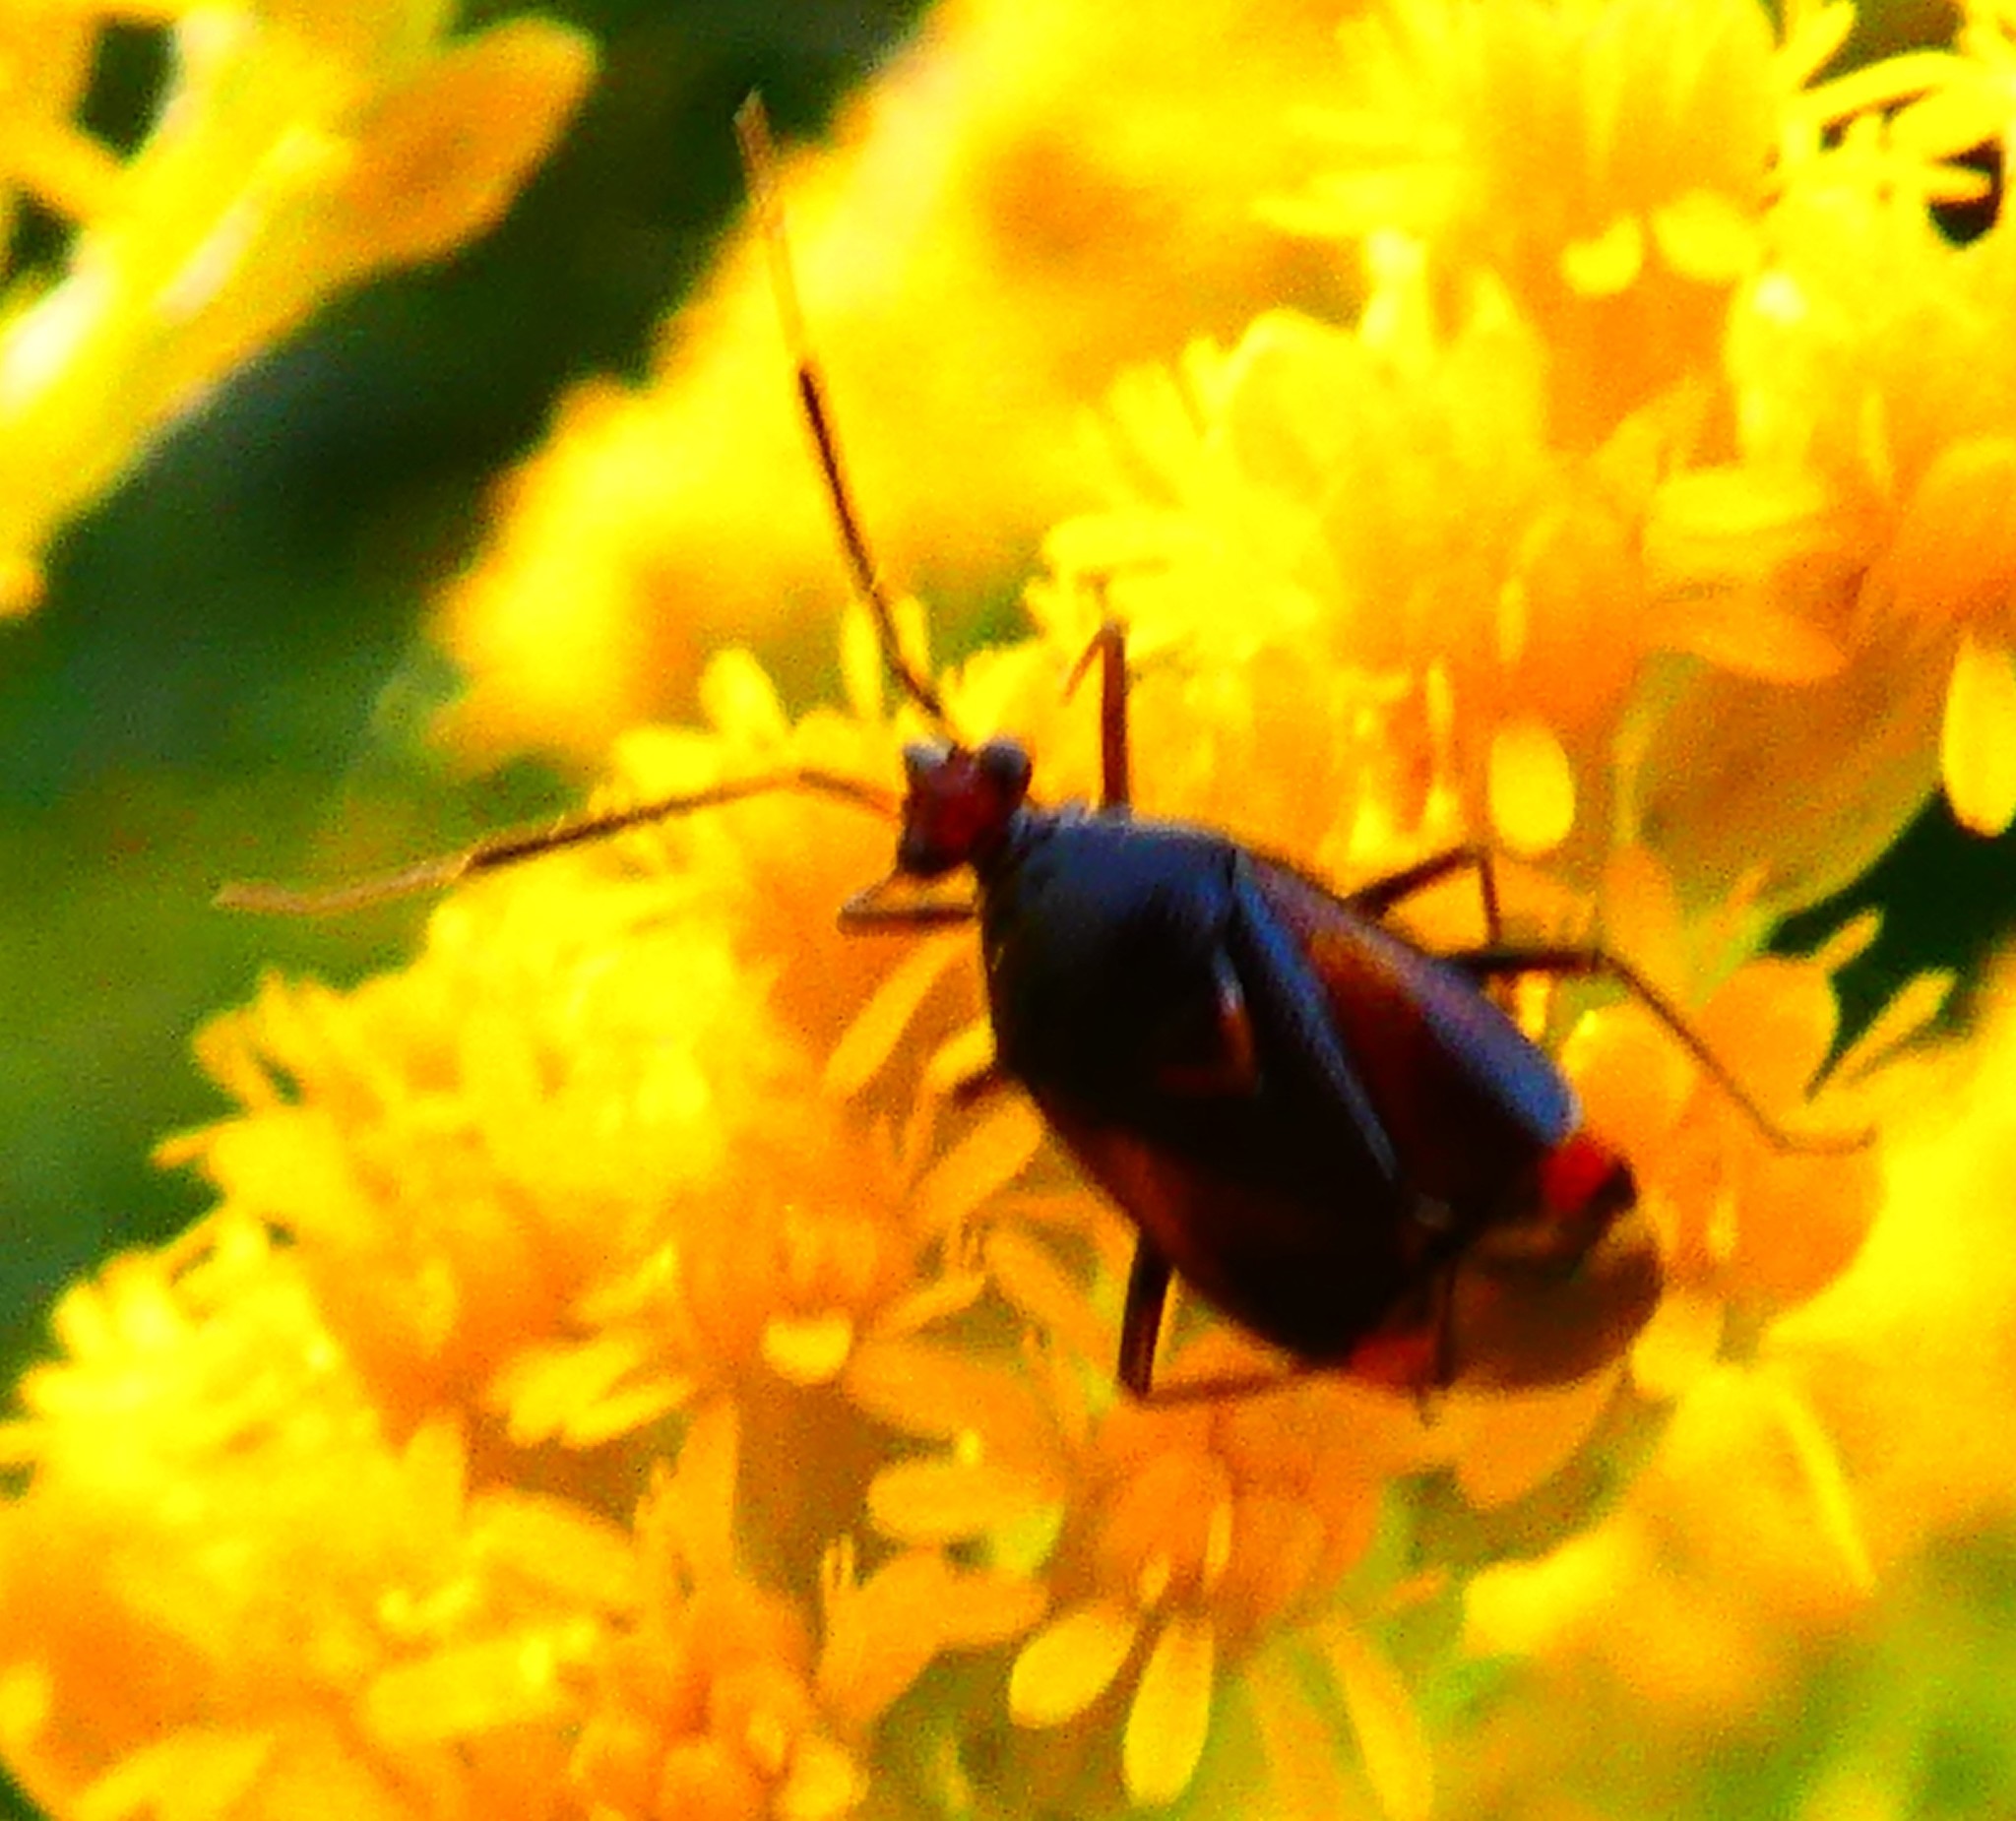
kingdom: Animalia
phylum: Arthropoda
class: Insecta
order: Hemiptera
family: Miridae
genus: Deraeocoris
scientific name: Deraeocoris ruber
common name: Plant bug
